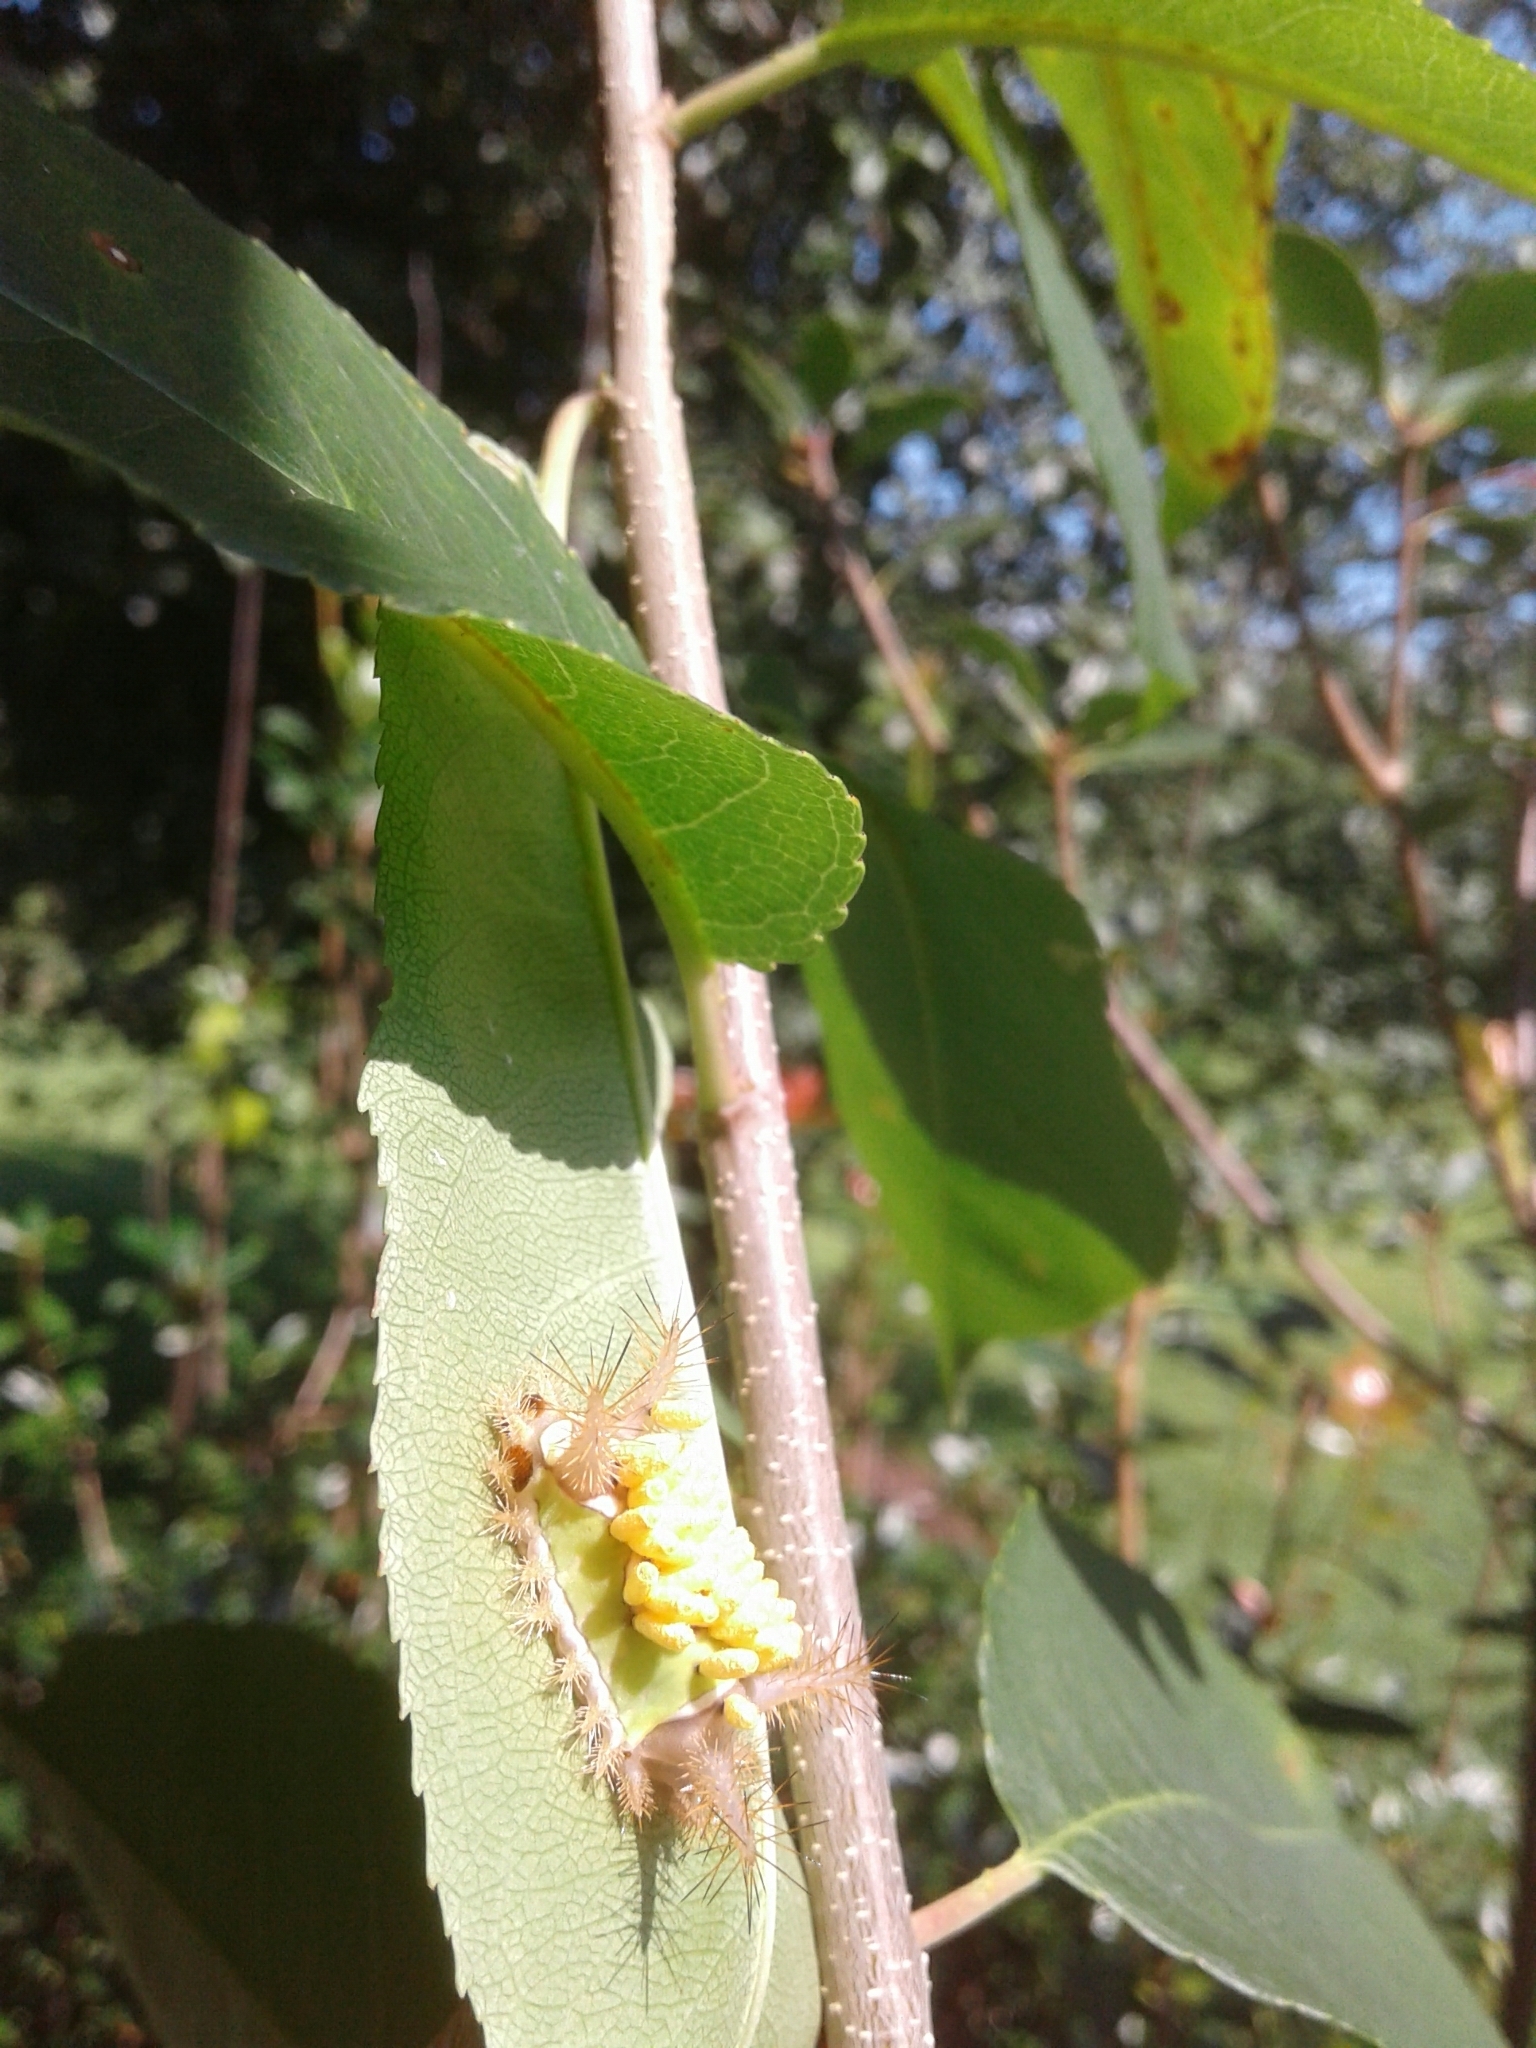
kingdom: Animalia
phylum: Arthropoda
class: Insecta
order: Hymenoptera
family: Braconidae
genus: Cotesia
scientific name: Cotesia empretiae
